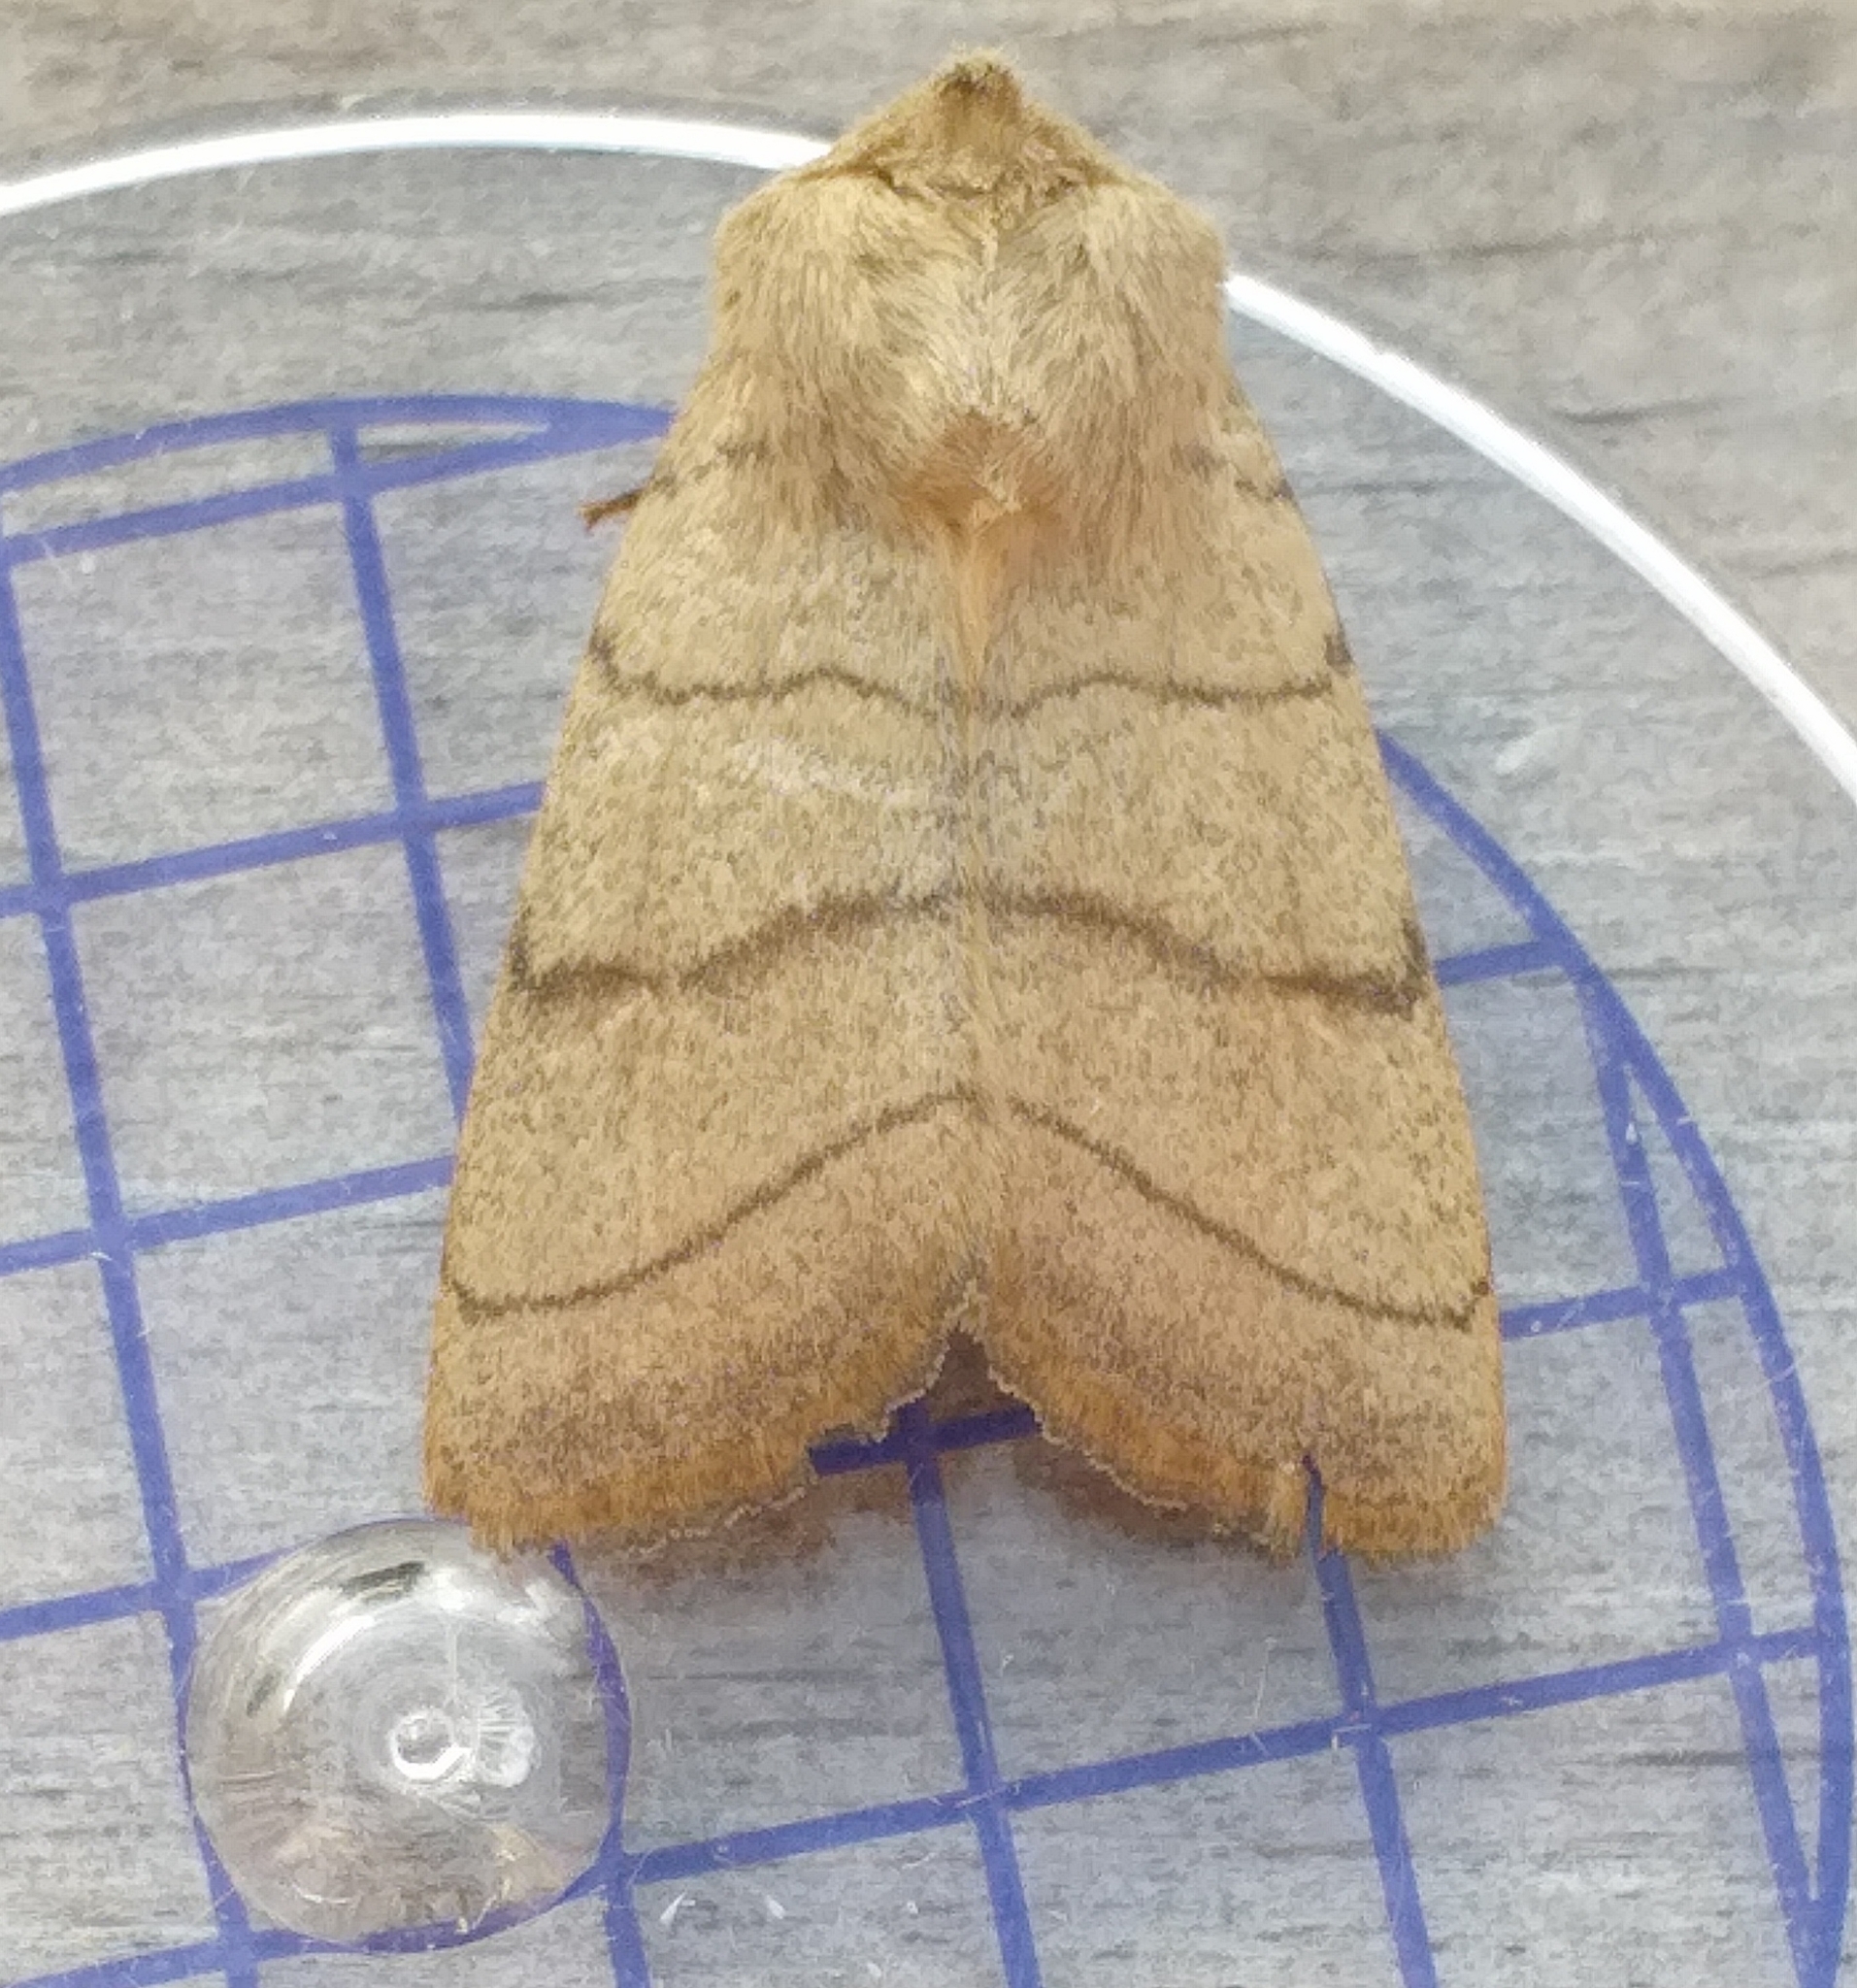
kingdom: Animalia
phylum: Arthropoda
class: Insecta
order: Lepidoptera
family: Noctuidae
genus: Charanyca
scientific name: Charanyca trigrammica
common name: Treble lines
